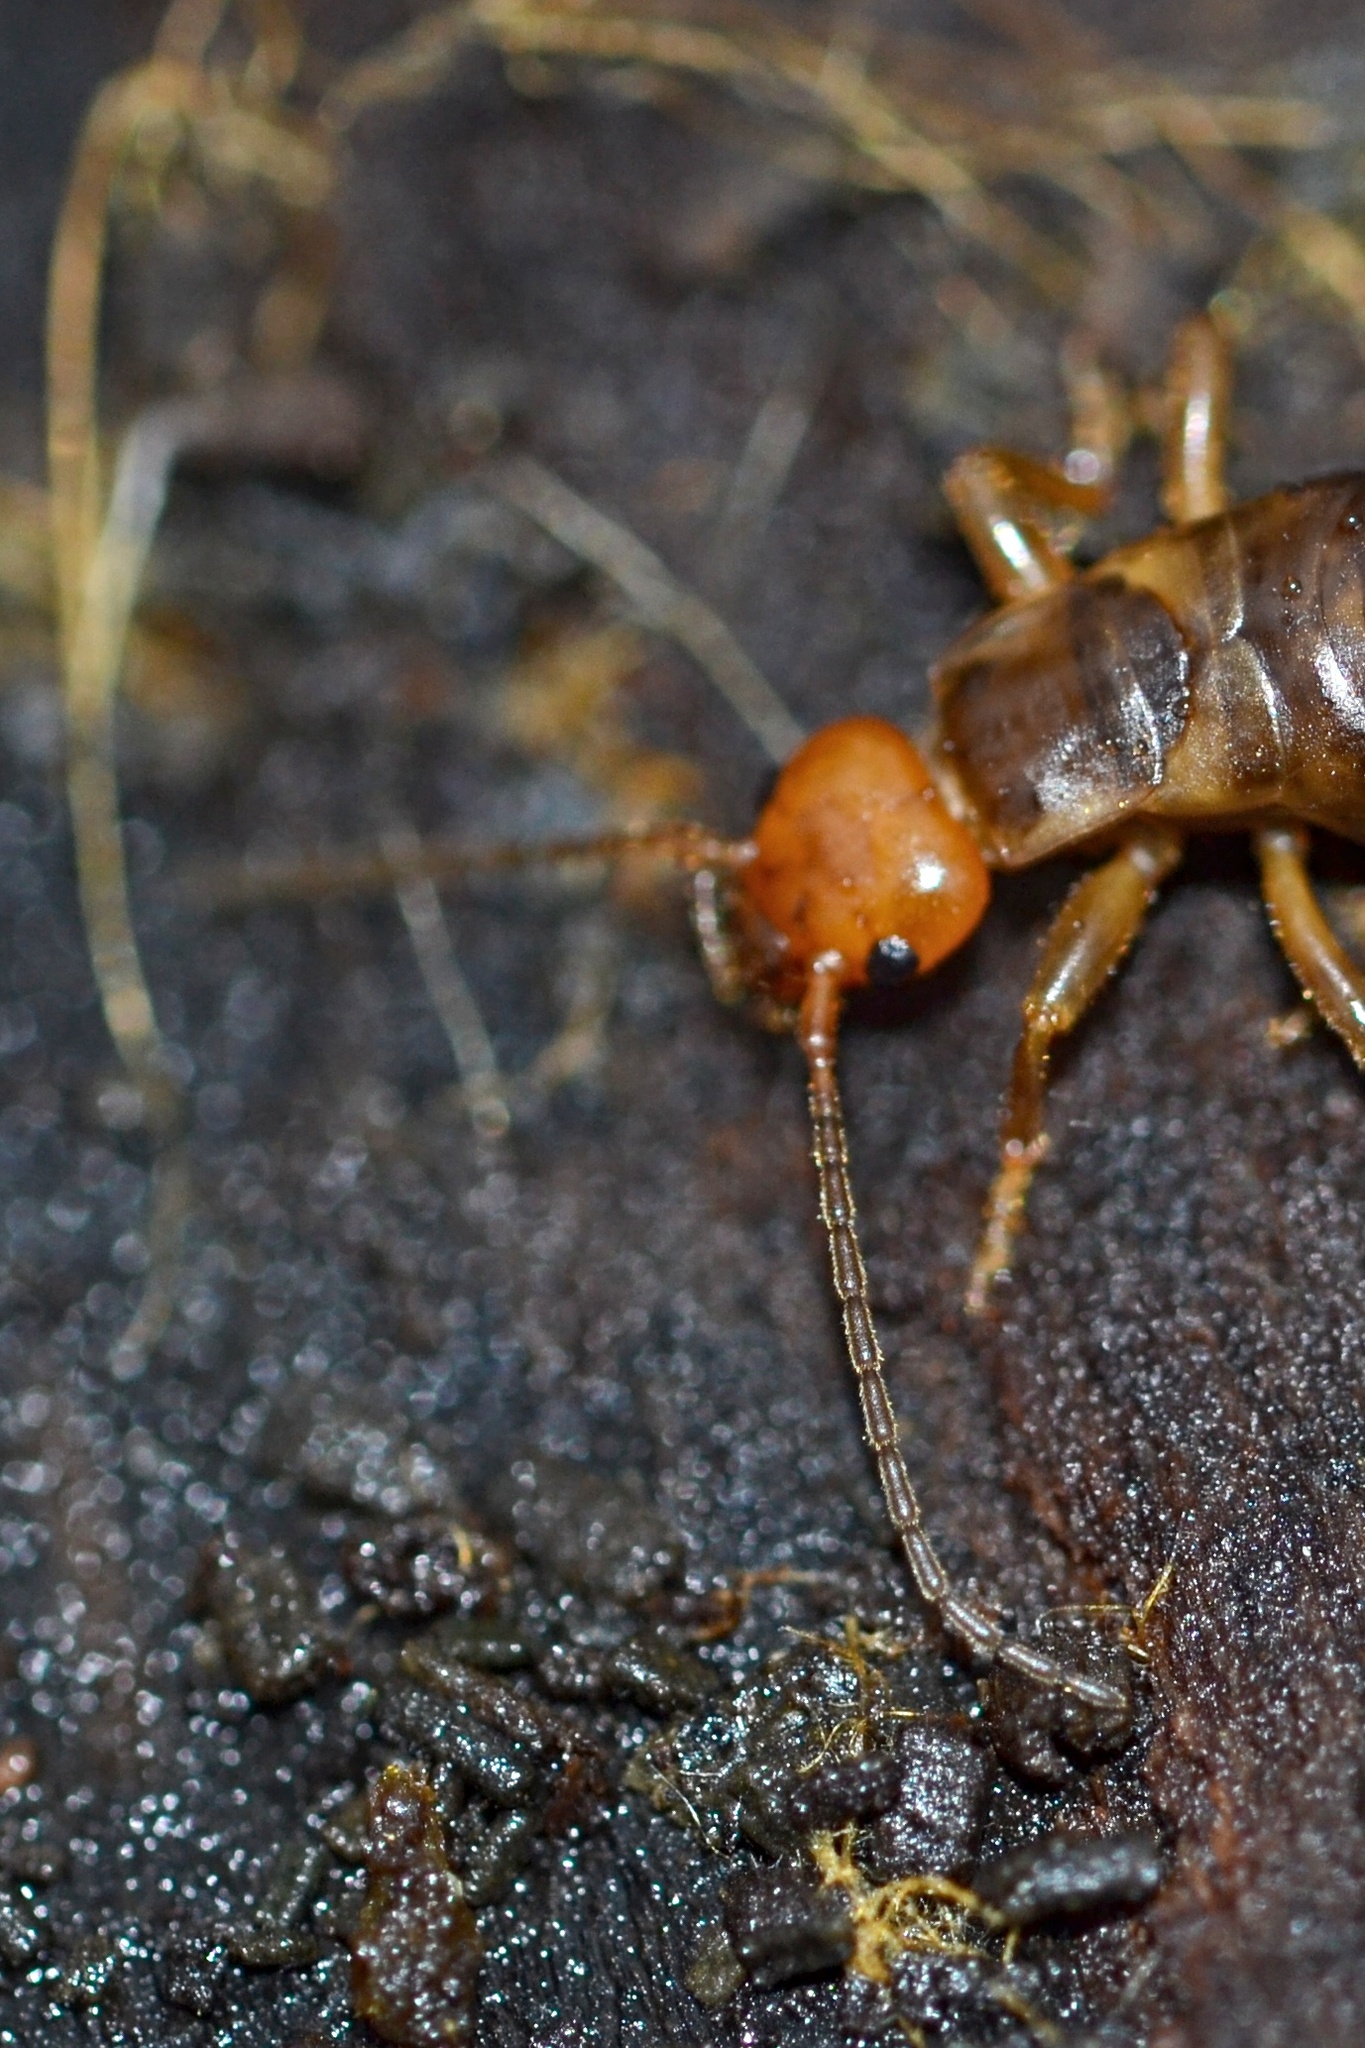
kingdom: Animalia
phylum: Arthropoda
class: Insecta
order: Dermaptera
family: Forficulidae
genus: Chelidurella
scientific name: Chelidurella acanthopygia
